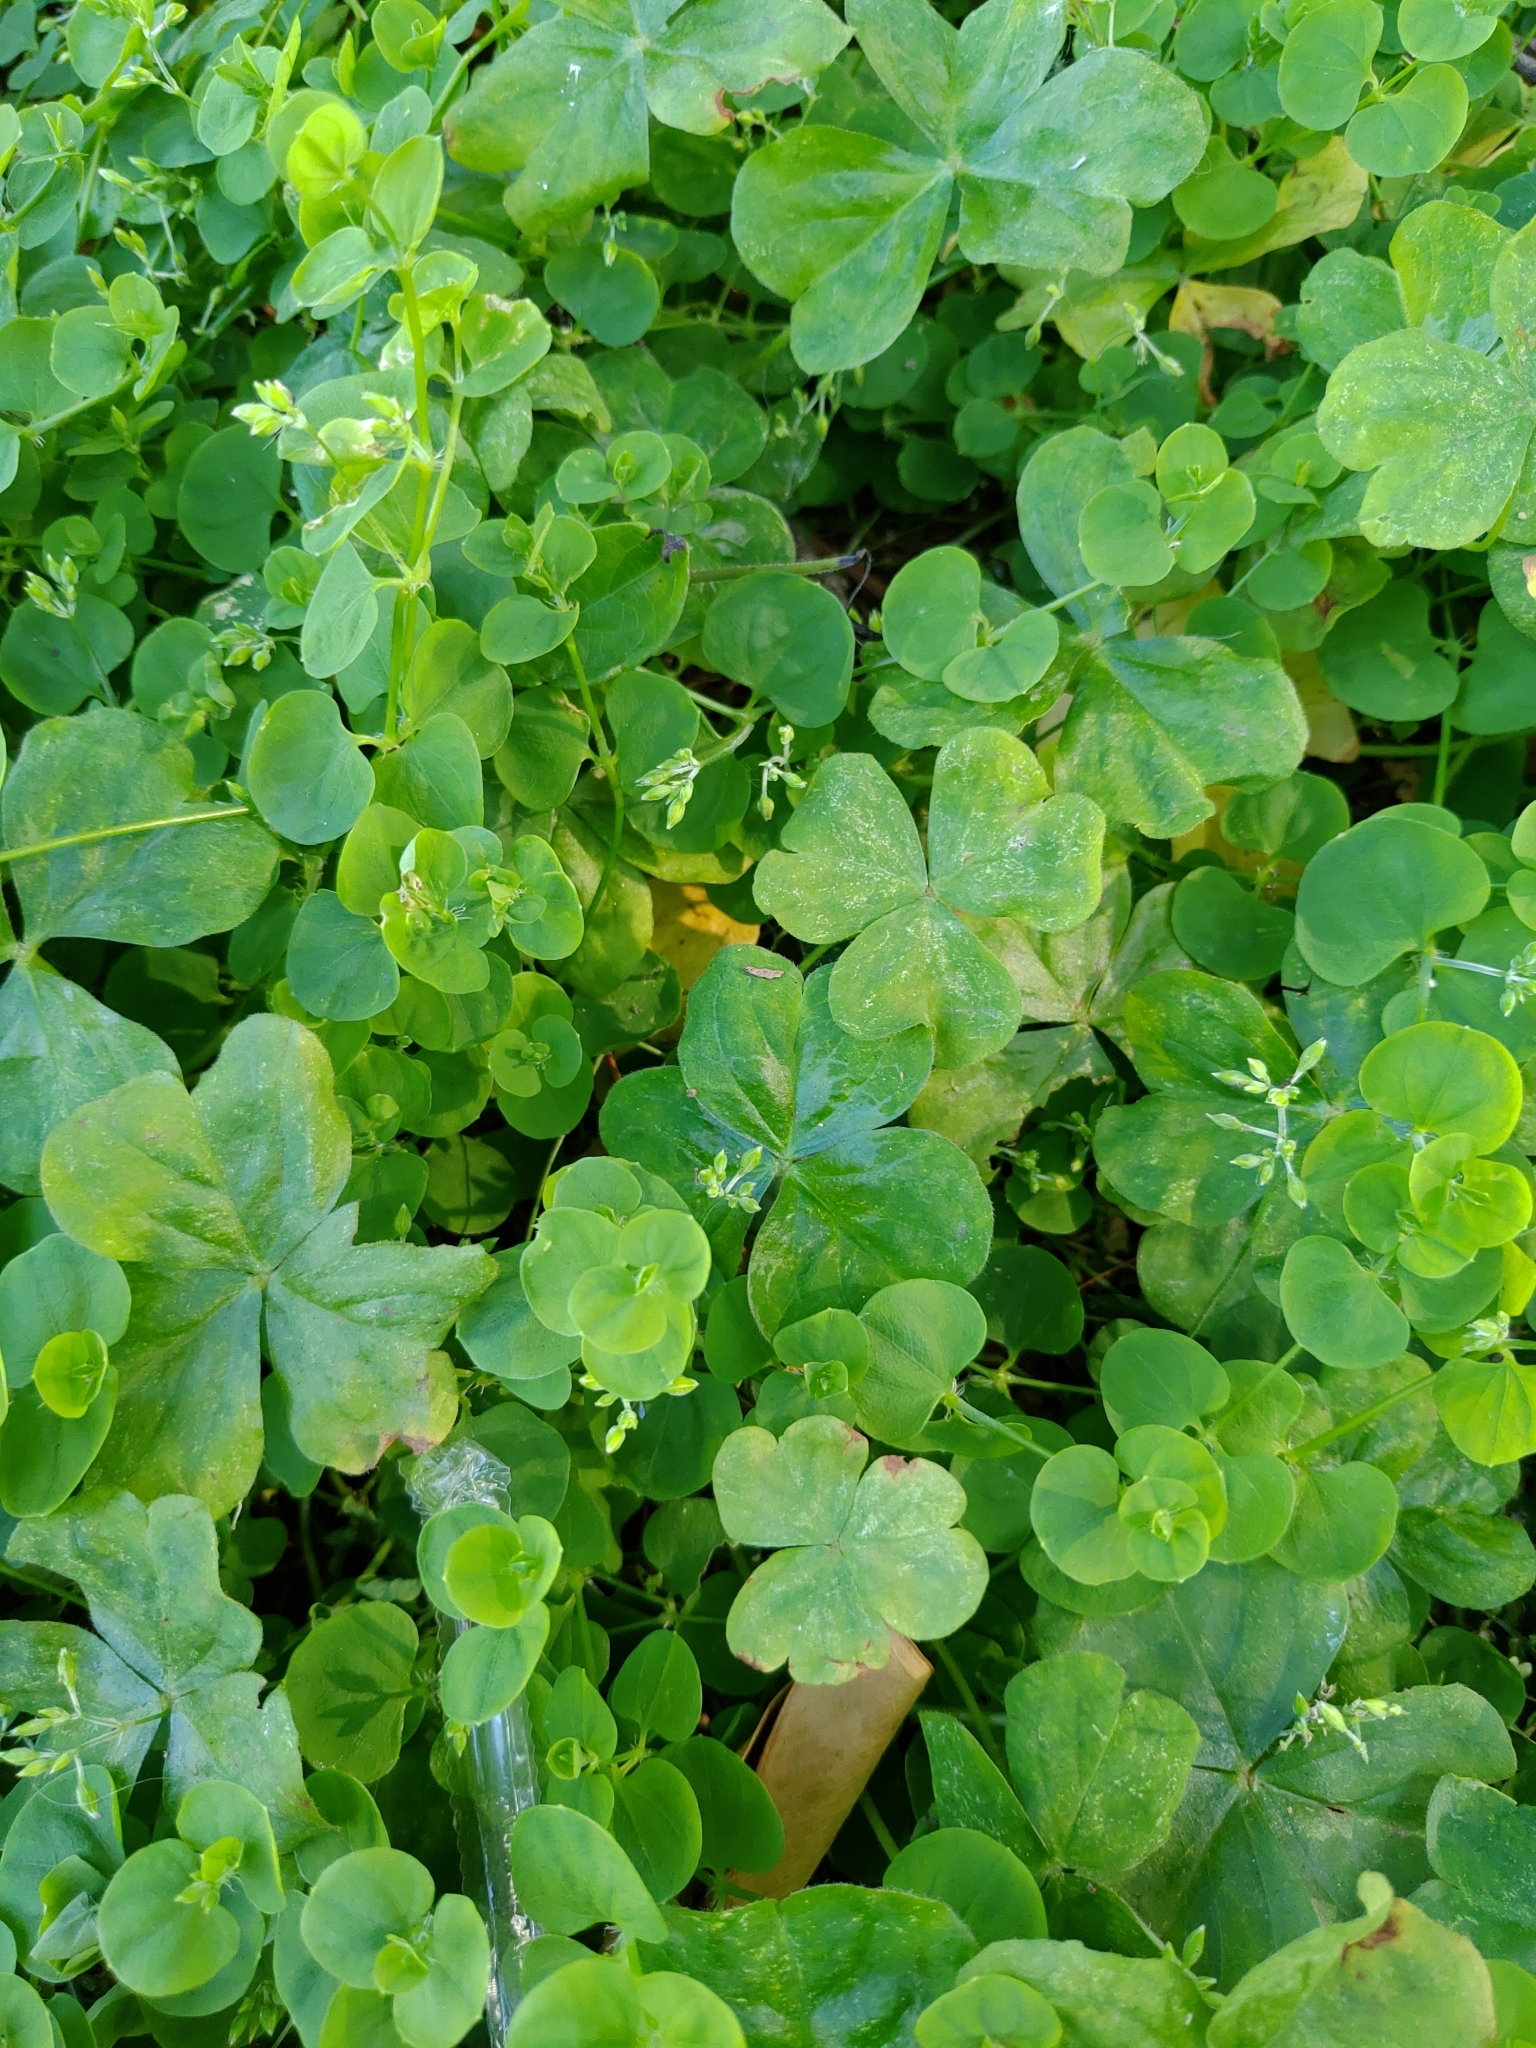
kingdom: Plantae
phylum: Tracheophyta
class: Magnoliopsida
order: Oxalidales
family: Oxalidaceae
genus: Oxalis
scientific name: Oxalis debilis
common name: Large-flowered pink-sorrel
